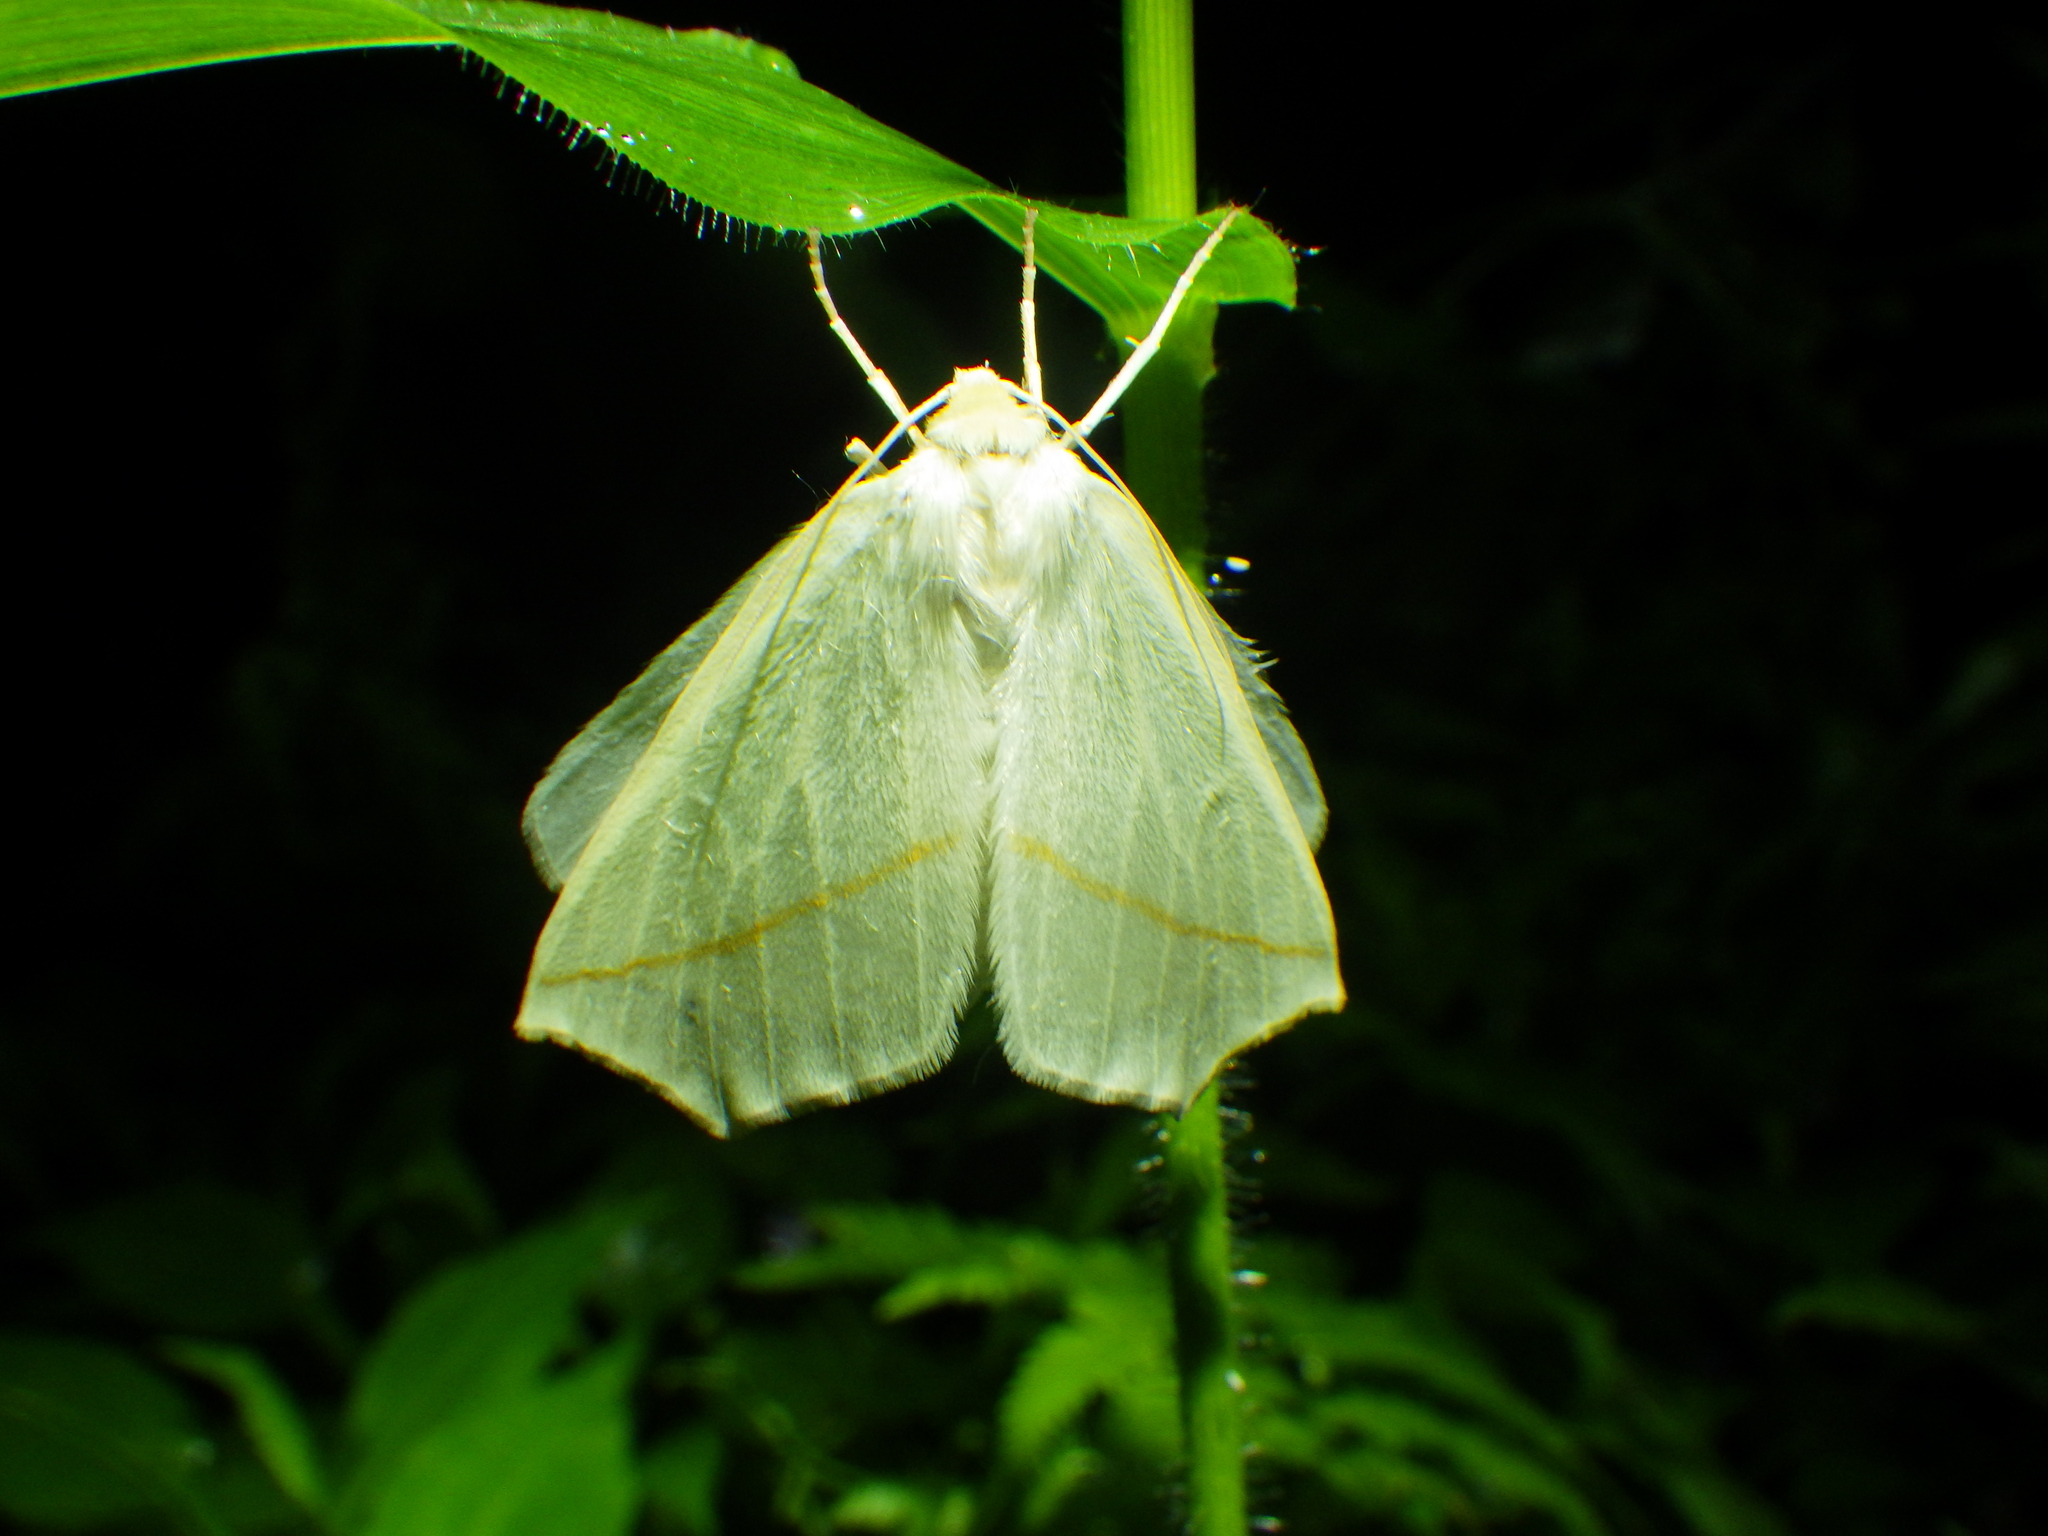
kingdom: Animalia
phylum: Arthropoda
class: Insecta
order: Lepidoptera
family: Geometridae
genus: Tetracis
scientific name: Tetracis cachexiata
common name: White slant-line
